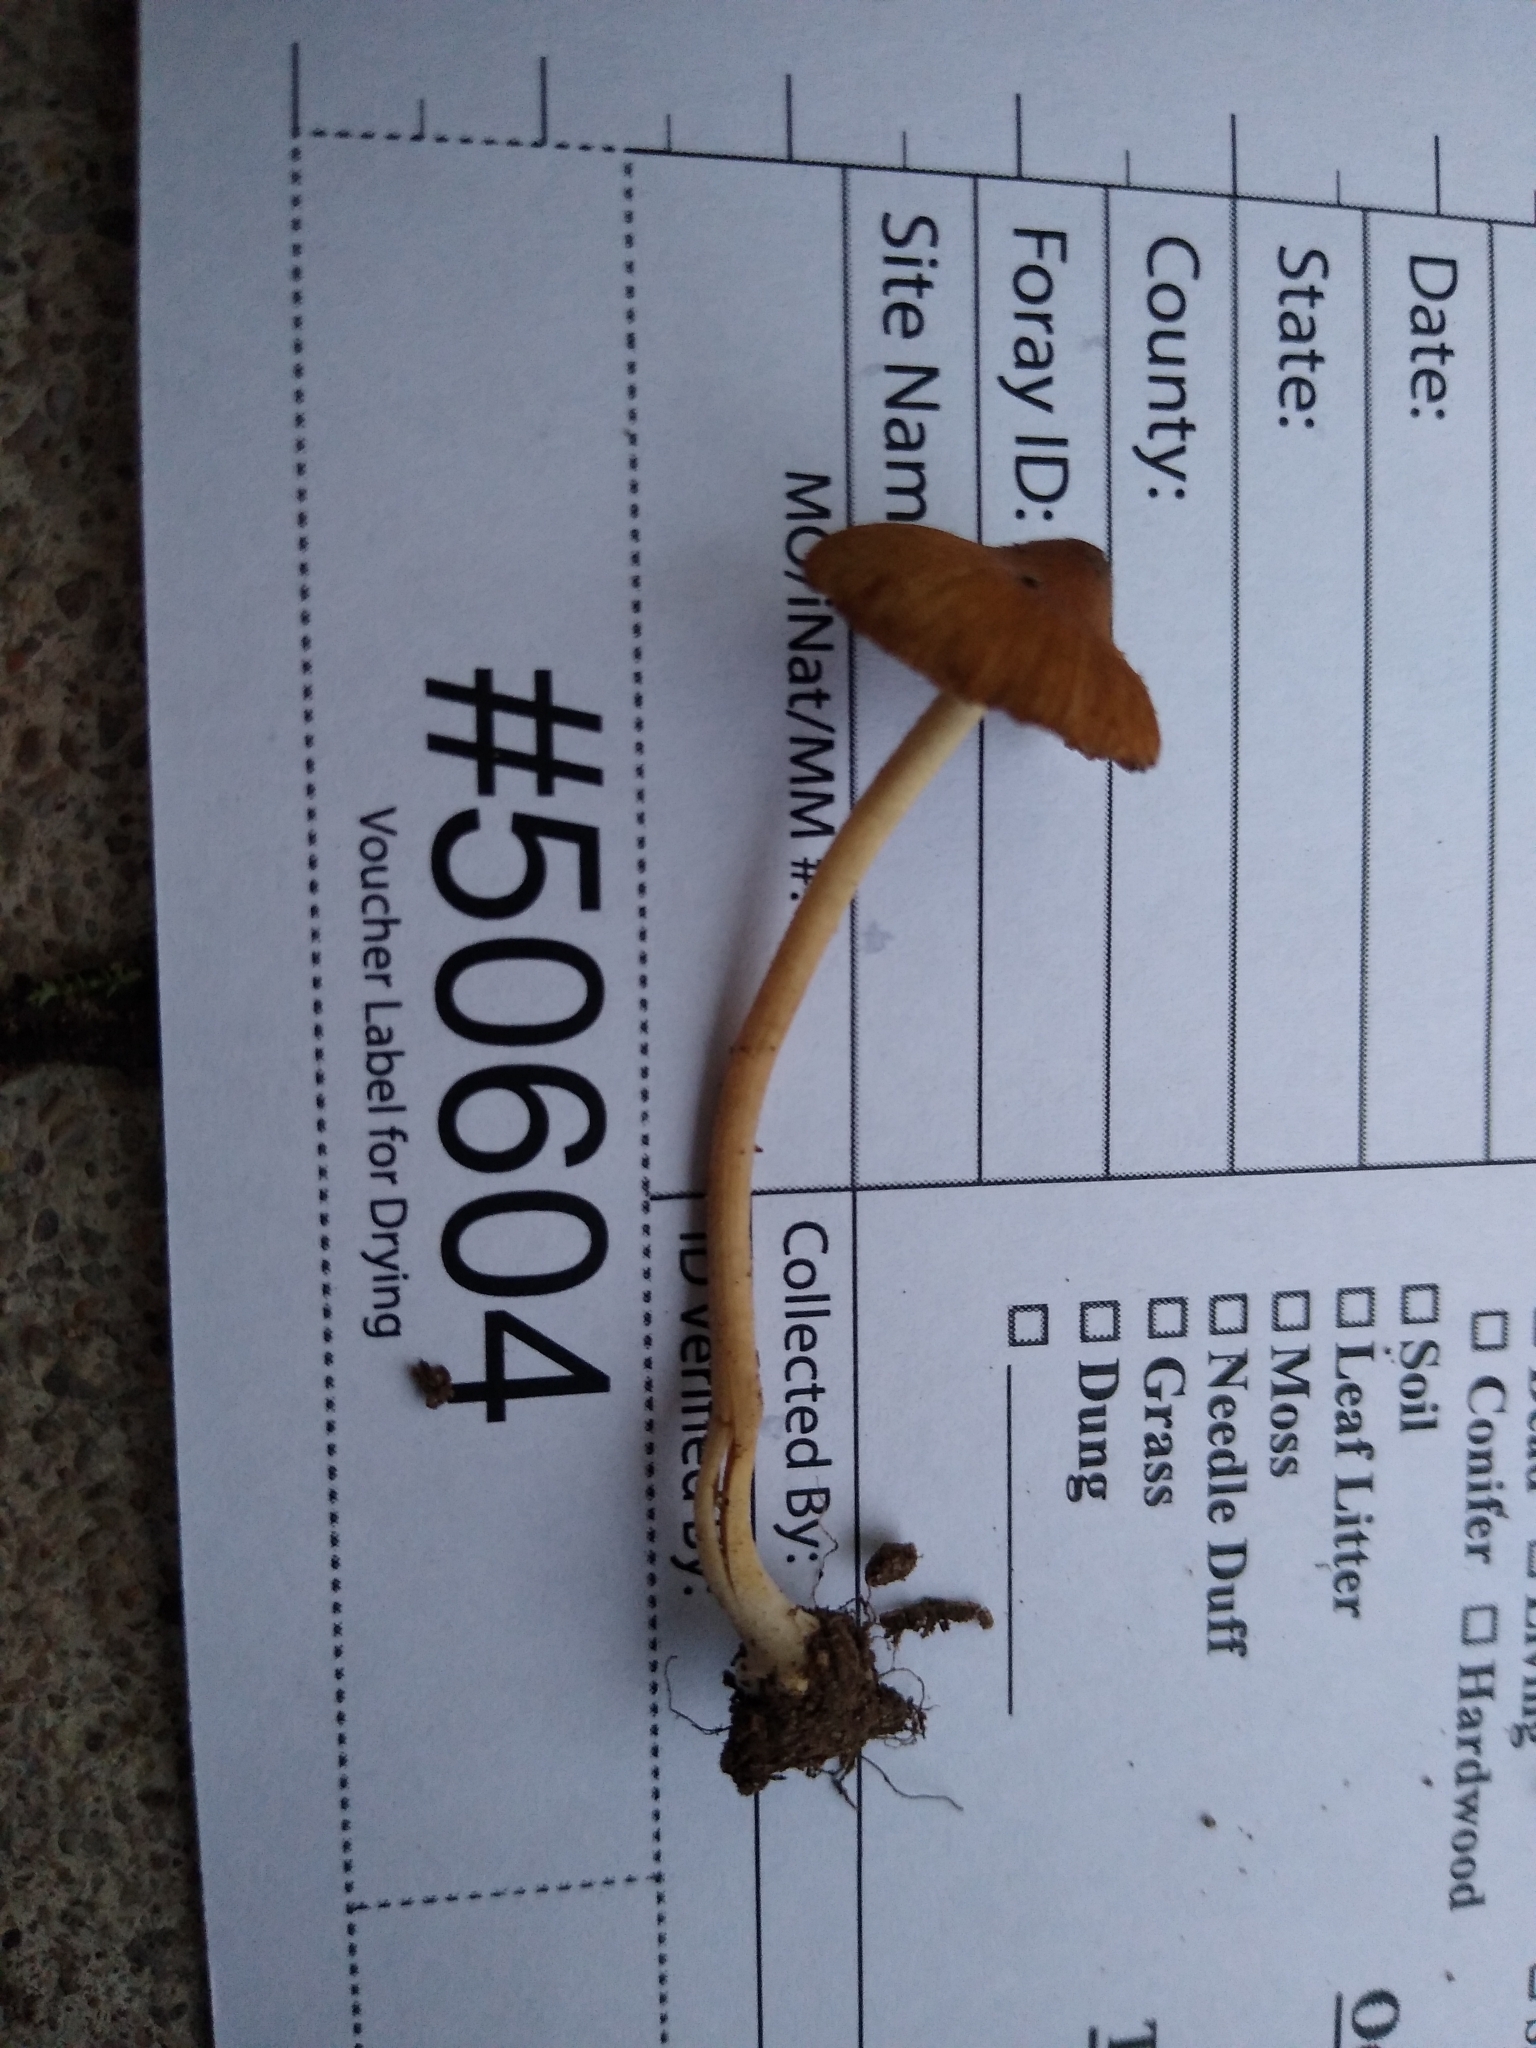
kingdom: Fungi
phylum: Basidiomycota
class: Agaricomycetes
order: Agaricales
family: Inocybaceae
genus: Inocybe
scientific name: Inocybe intricata
